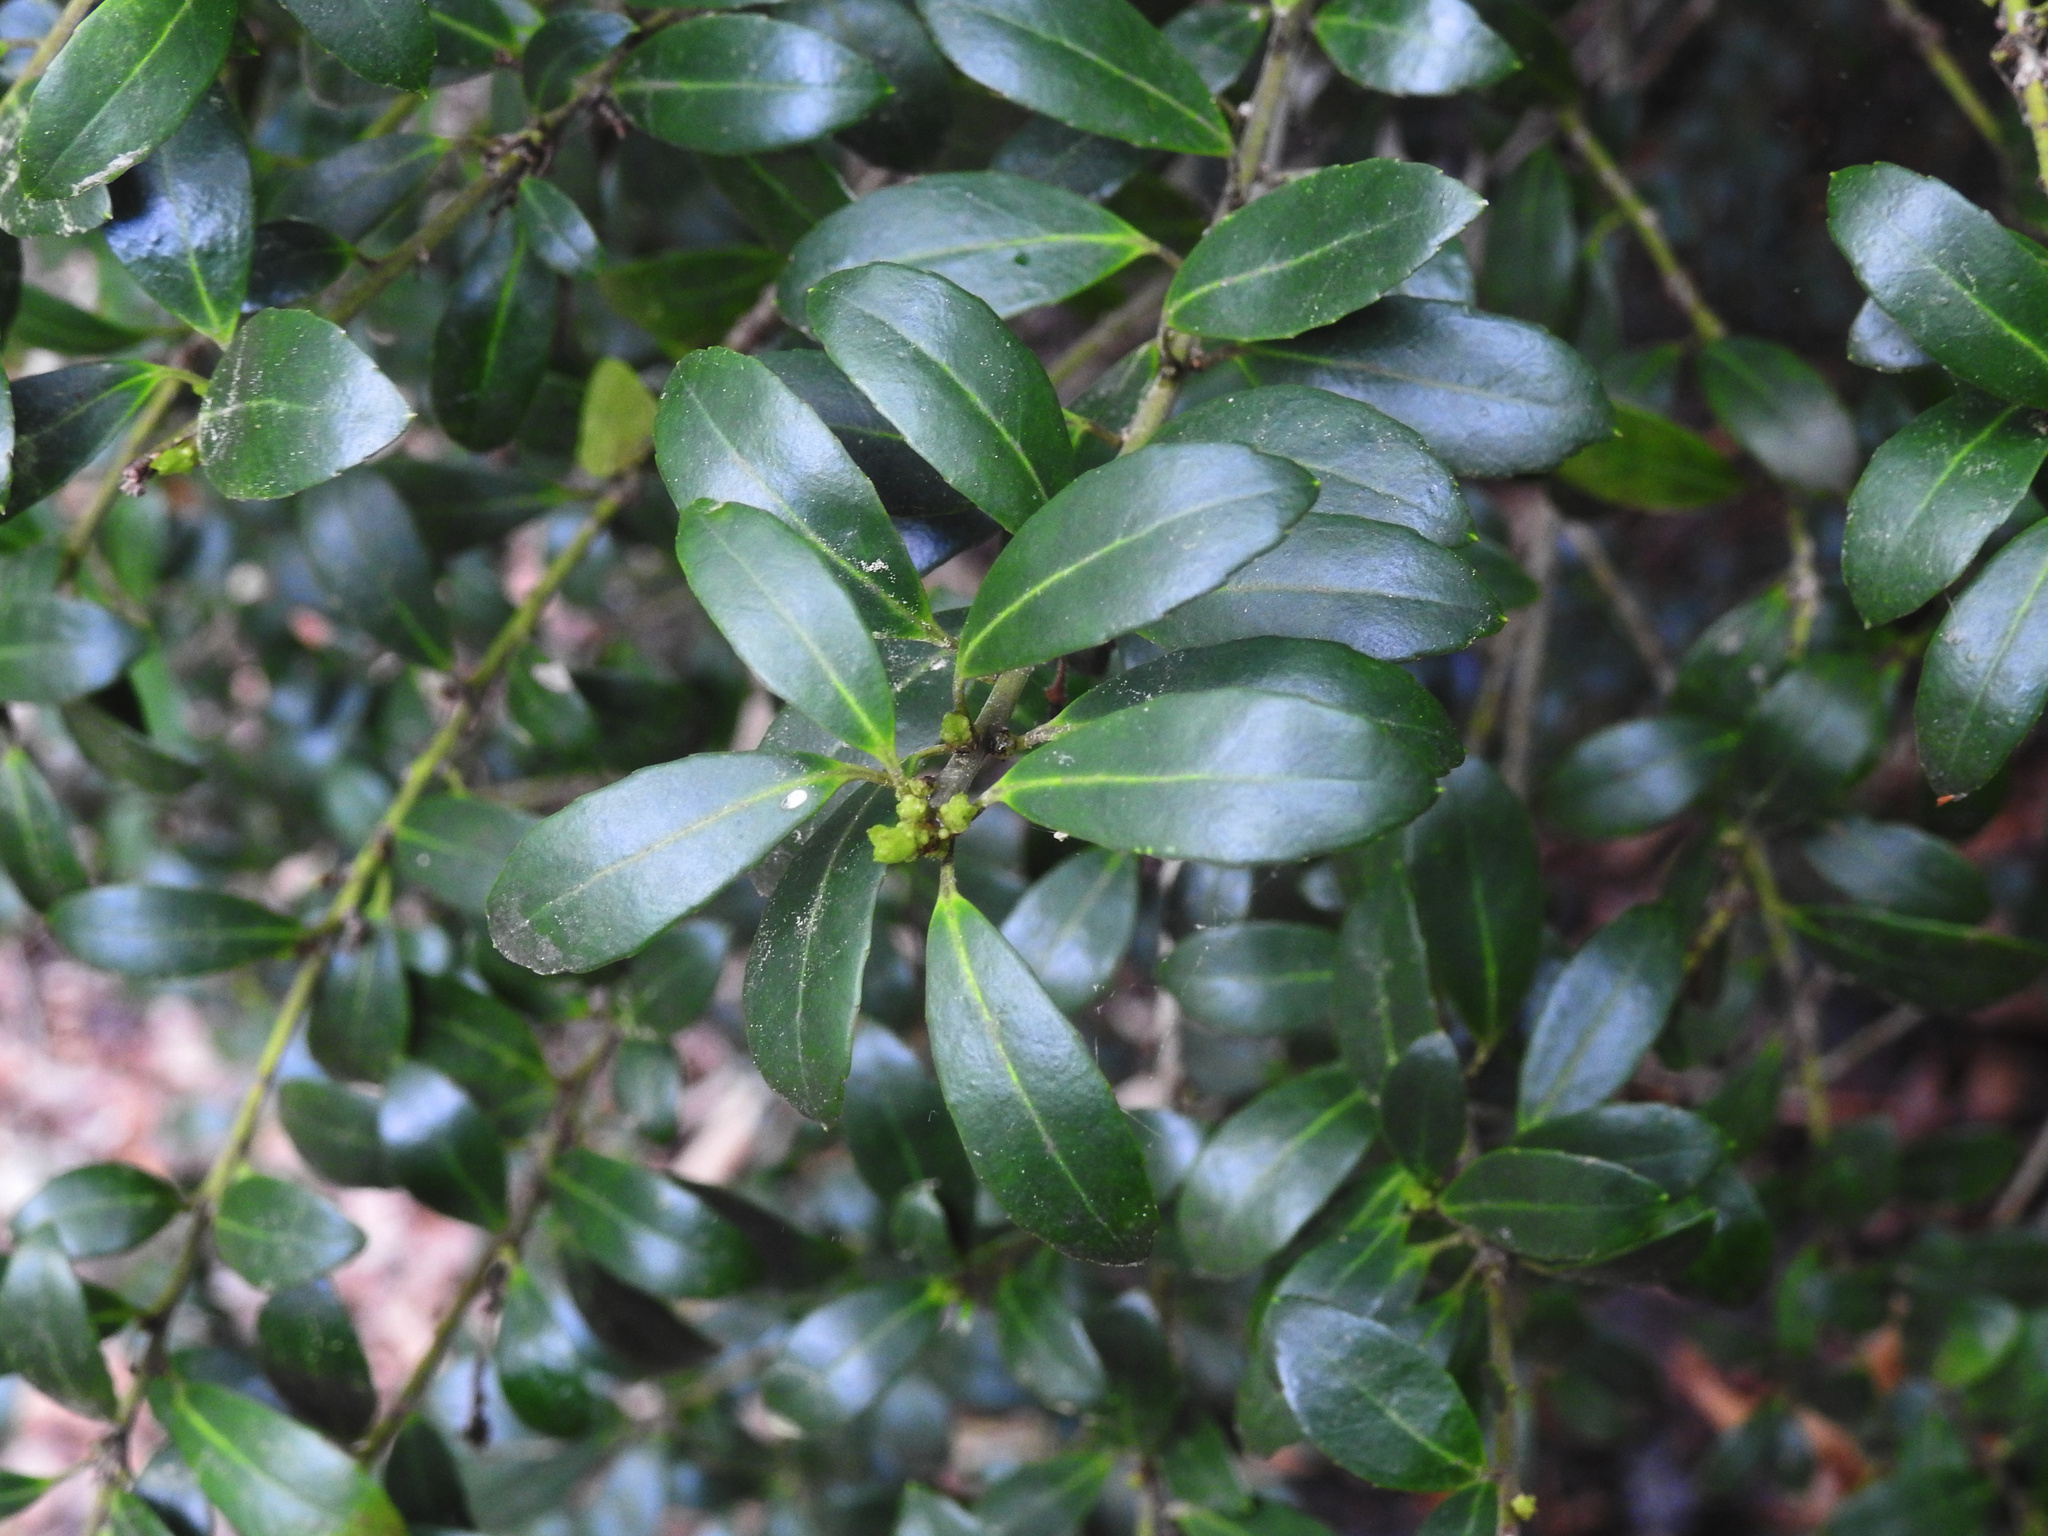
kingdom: Plantae
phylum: Tracheophyta
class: Magnoliopsida
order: Aquifoliales
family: Aquifoliaceae
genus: Ilex
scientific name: Ilex crenata
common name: Japanese holly
